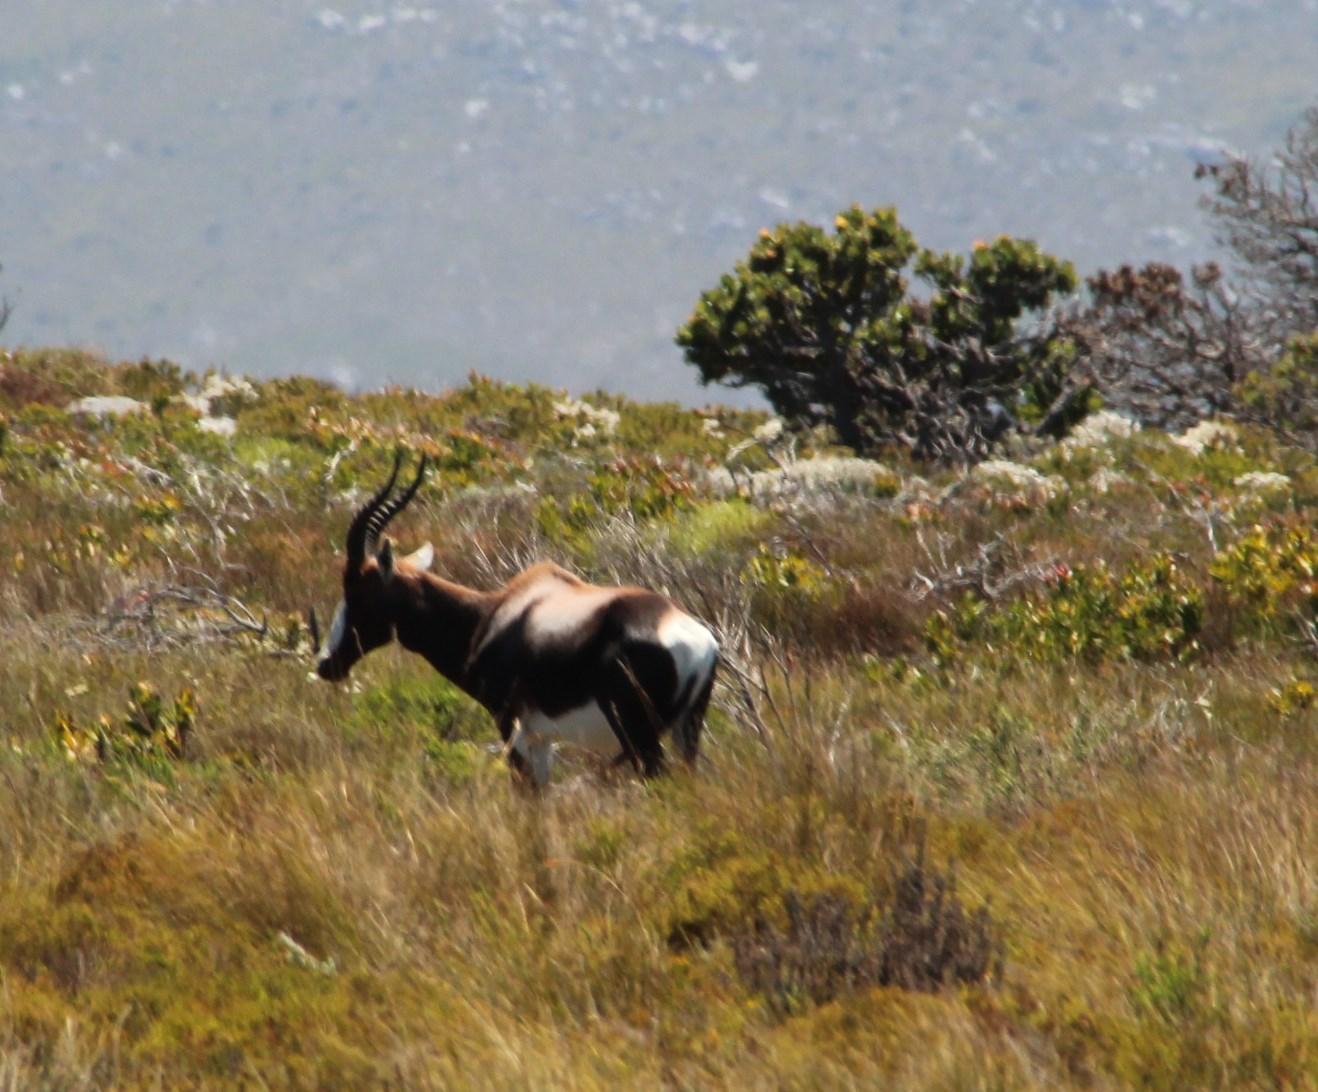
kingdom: Animalia
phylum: Chordata
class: Mammalia
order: Artiodactyla
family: Bovidae
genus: Damaliscus
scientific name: Damaliscus pygargus
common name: Bontebok
